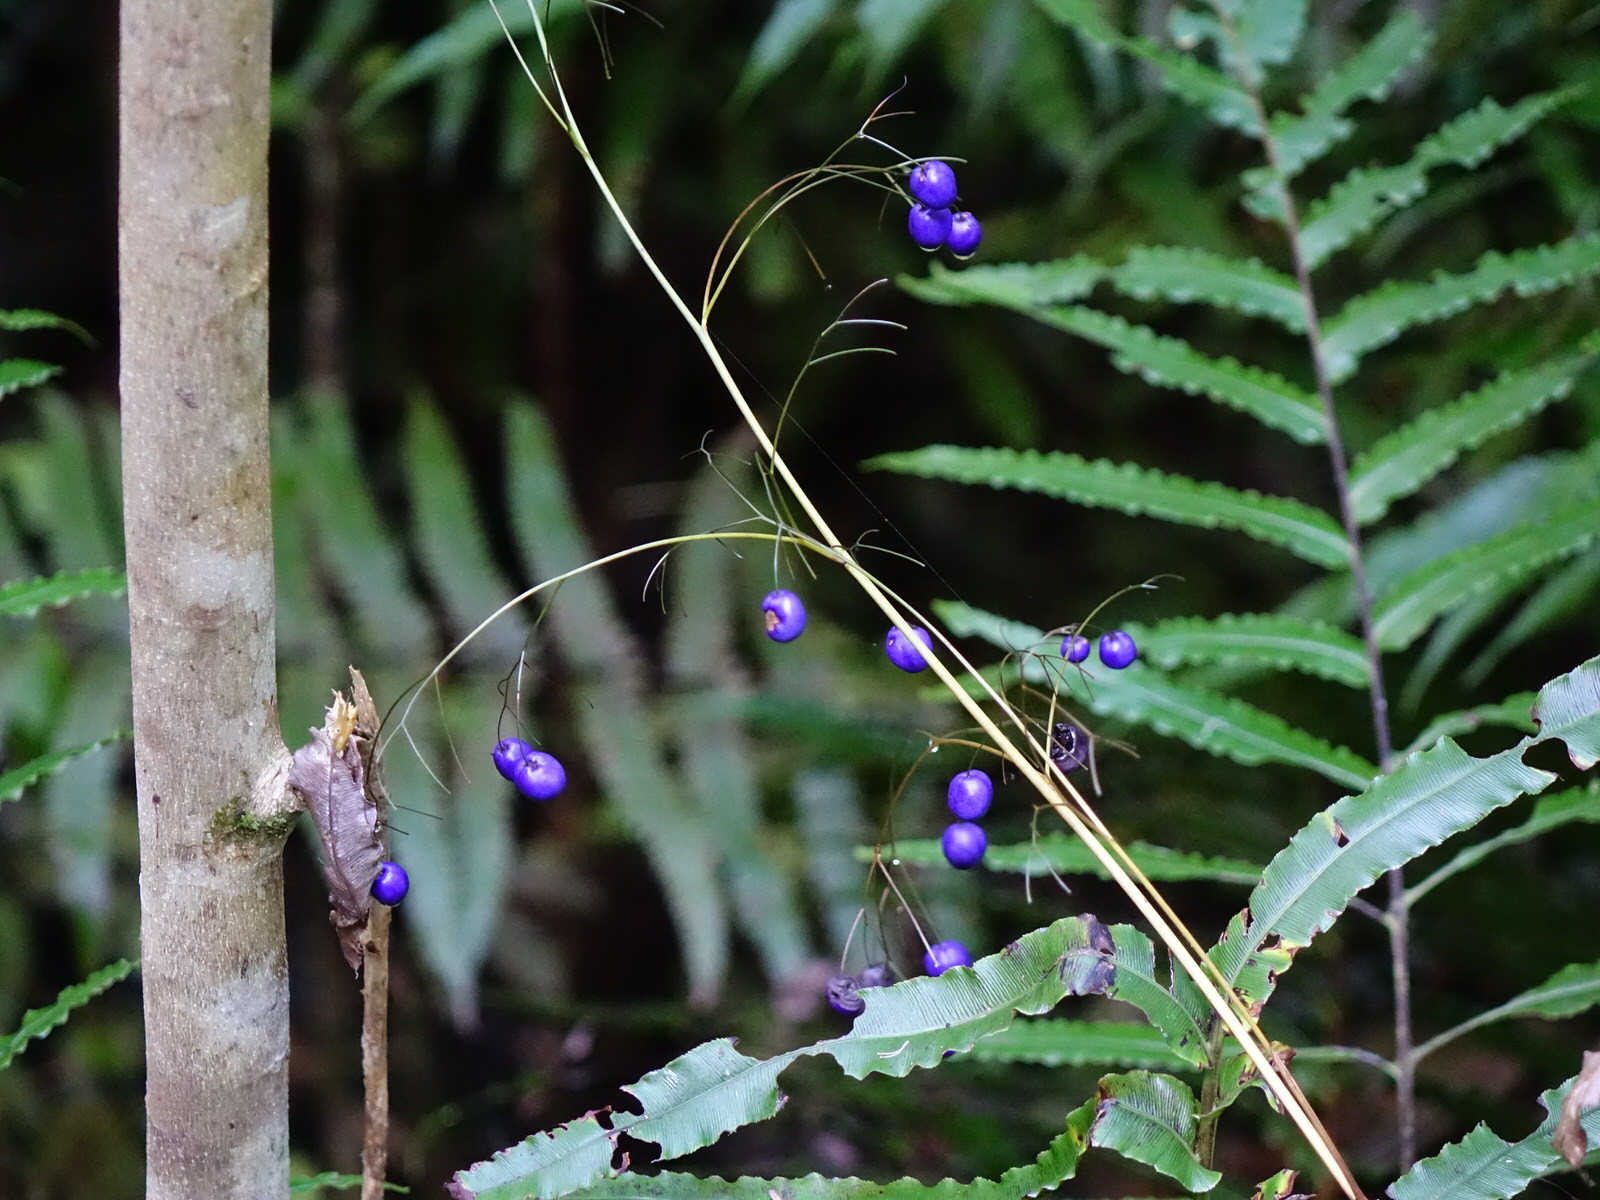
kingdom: Plantae
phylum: Tracheophyta
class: Liliopsida
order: Asparagales
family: Asphodelaceae
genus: Dianella
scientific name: Dianella nigra
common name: New zealand-blueberry
